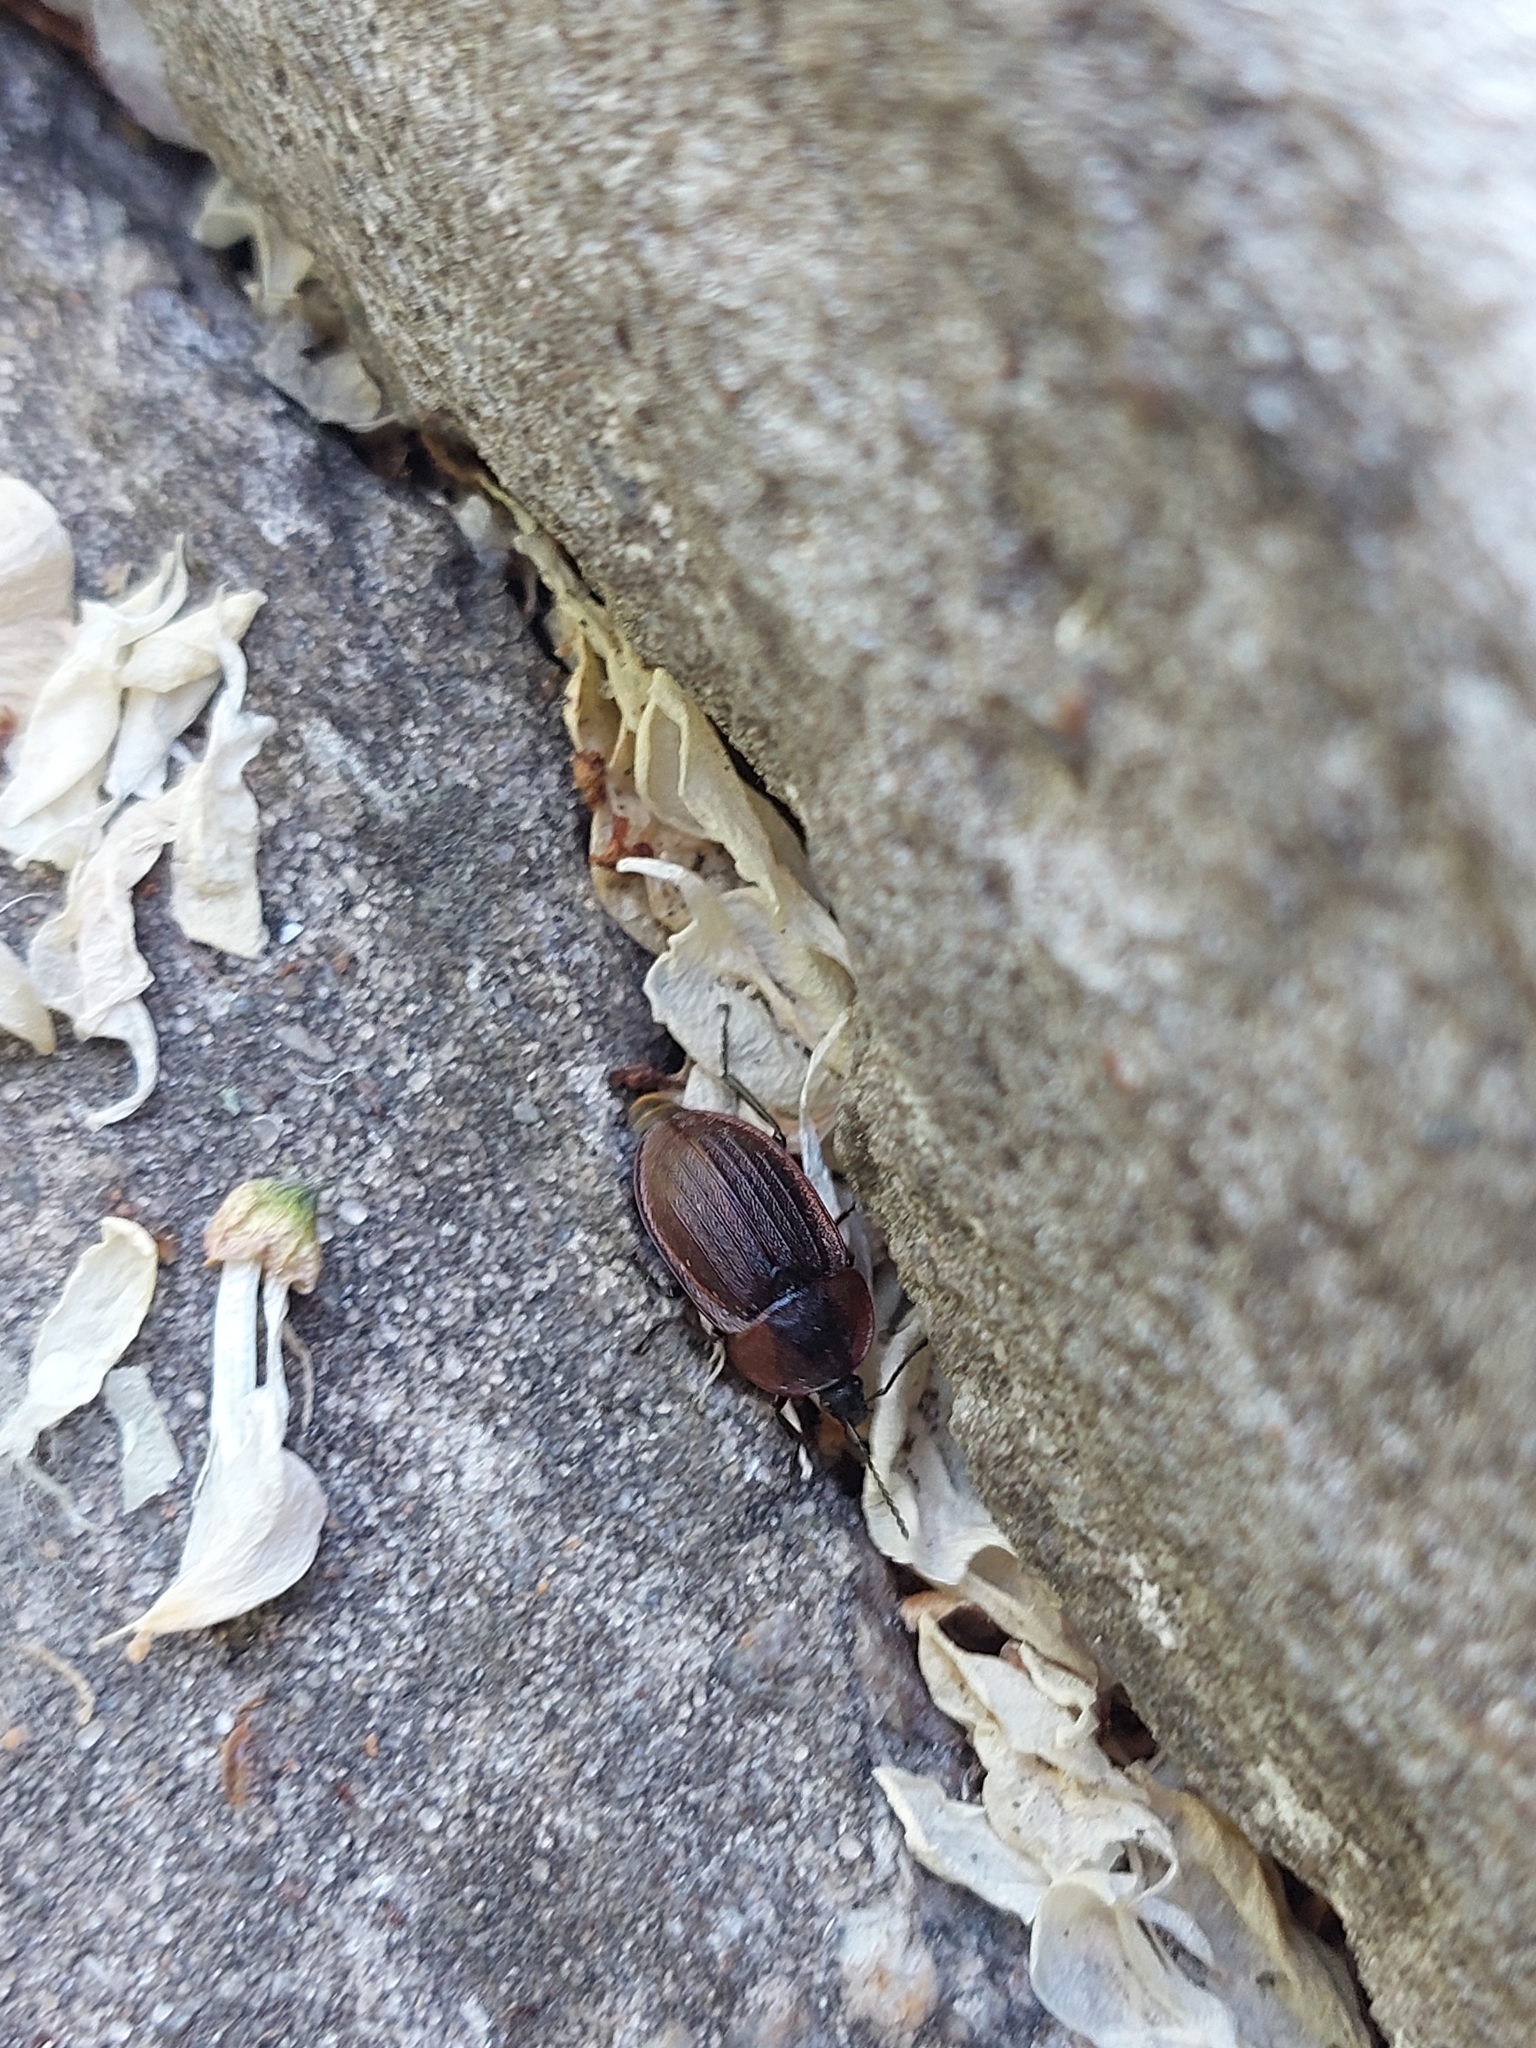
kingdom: Animalia
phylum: Arthropoda
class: Insecta
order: Coleoptera
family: Staphylinidae
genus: Silpha
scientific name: Silpha atrata
